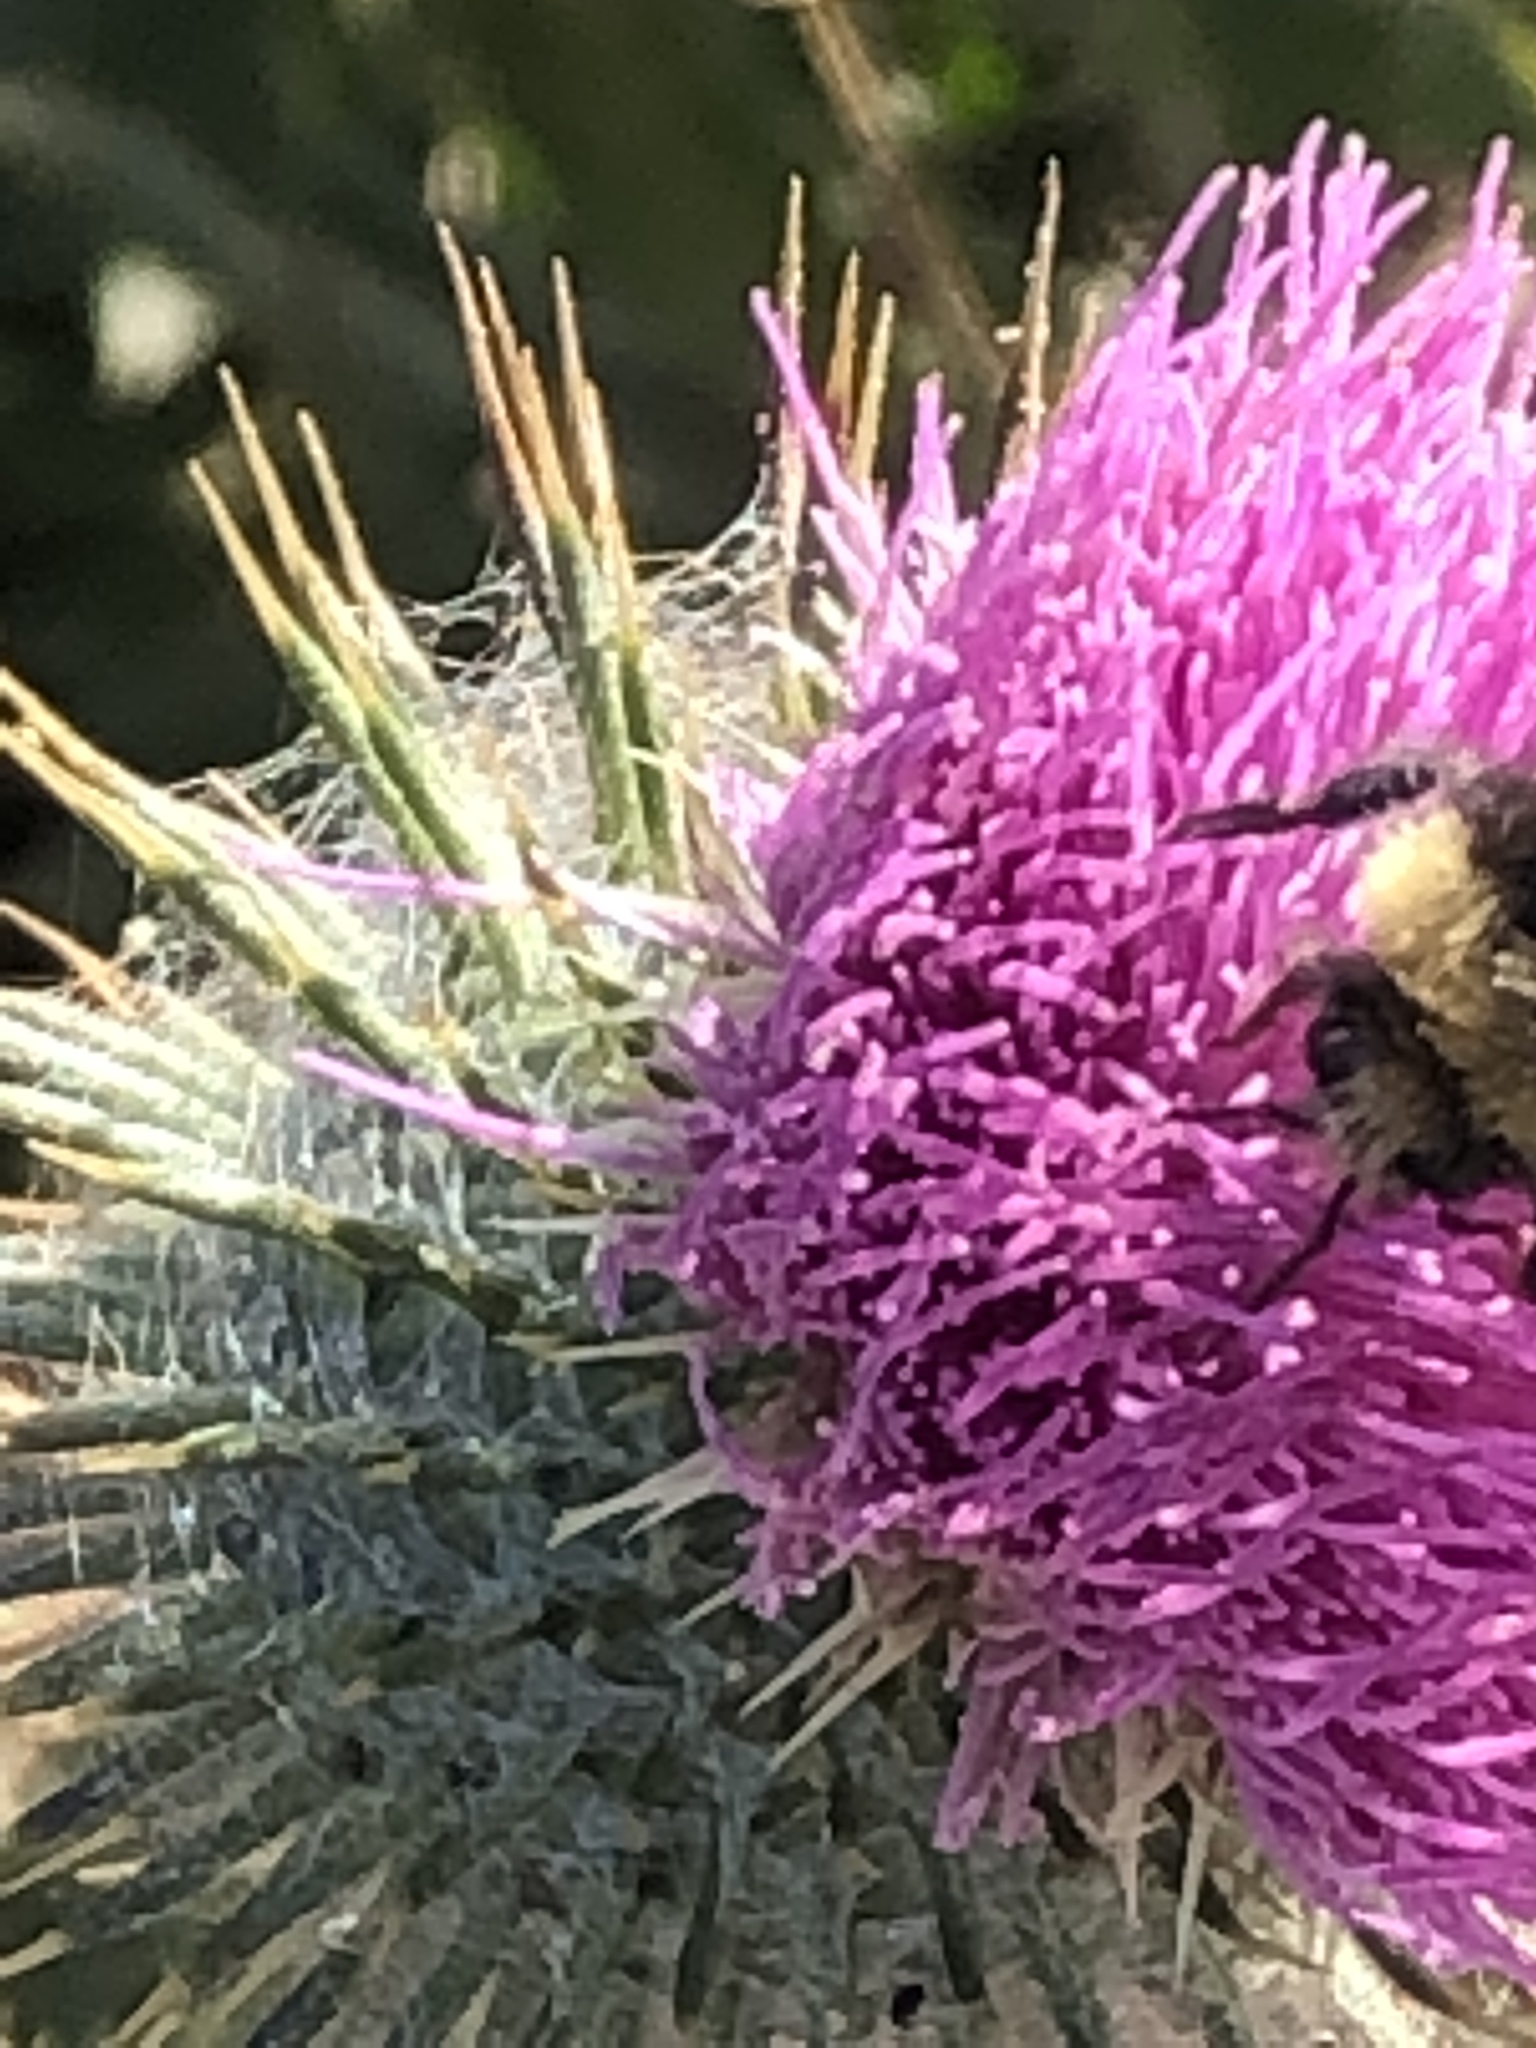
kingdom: Plantae
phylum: Tracheophyta
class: Magnoliopsida
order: Asterales
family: Asteraceae
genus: Cirsium
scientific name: Cirsium vulgare
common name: Bull thistle
